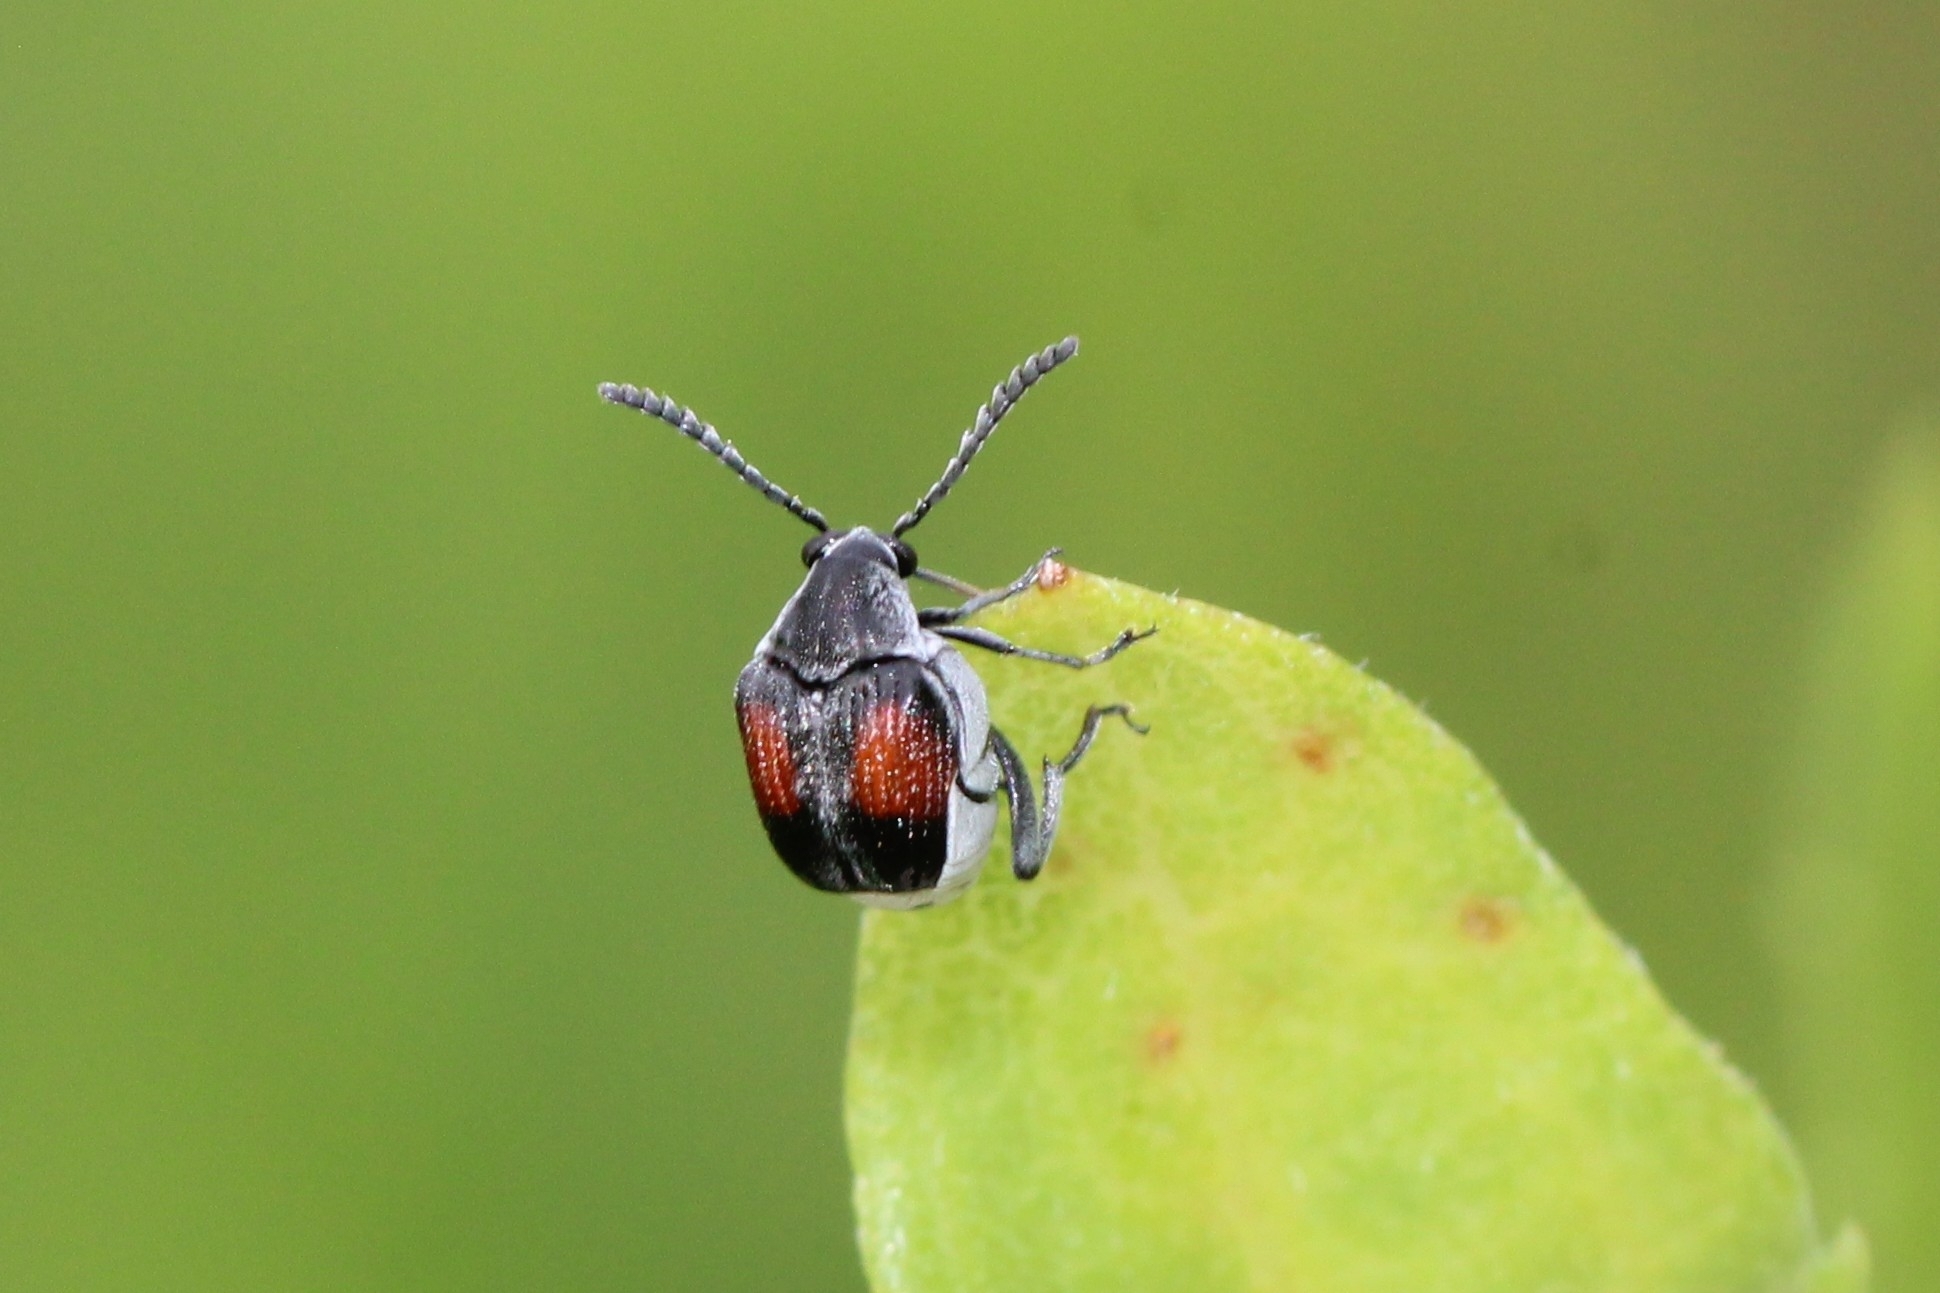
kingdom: Animalia
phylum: Arthropoda
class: Insecta
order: Coleoptera
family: Chrysomelidae
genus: Megacerus
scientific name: Megacerus discoidus
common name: Red megacerus
